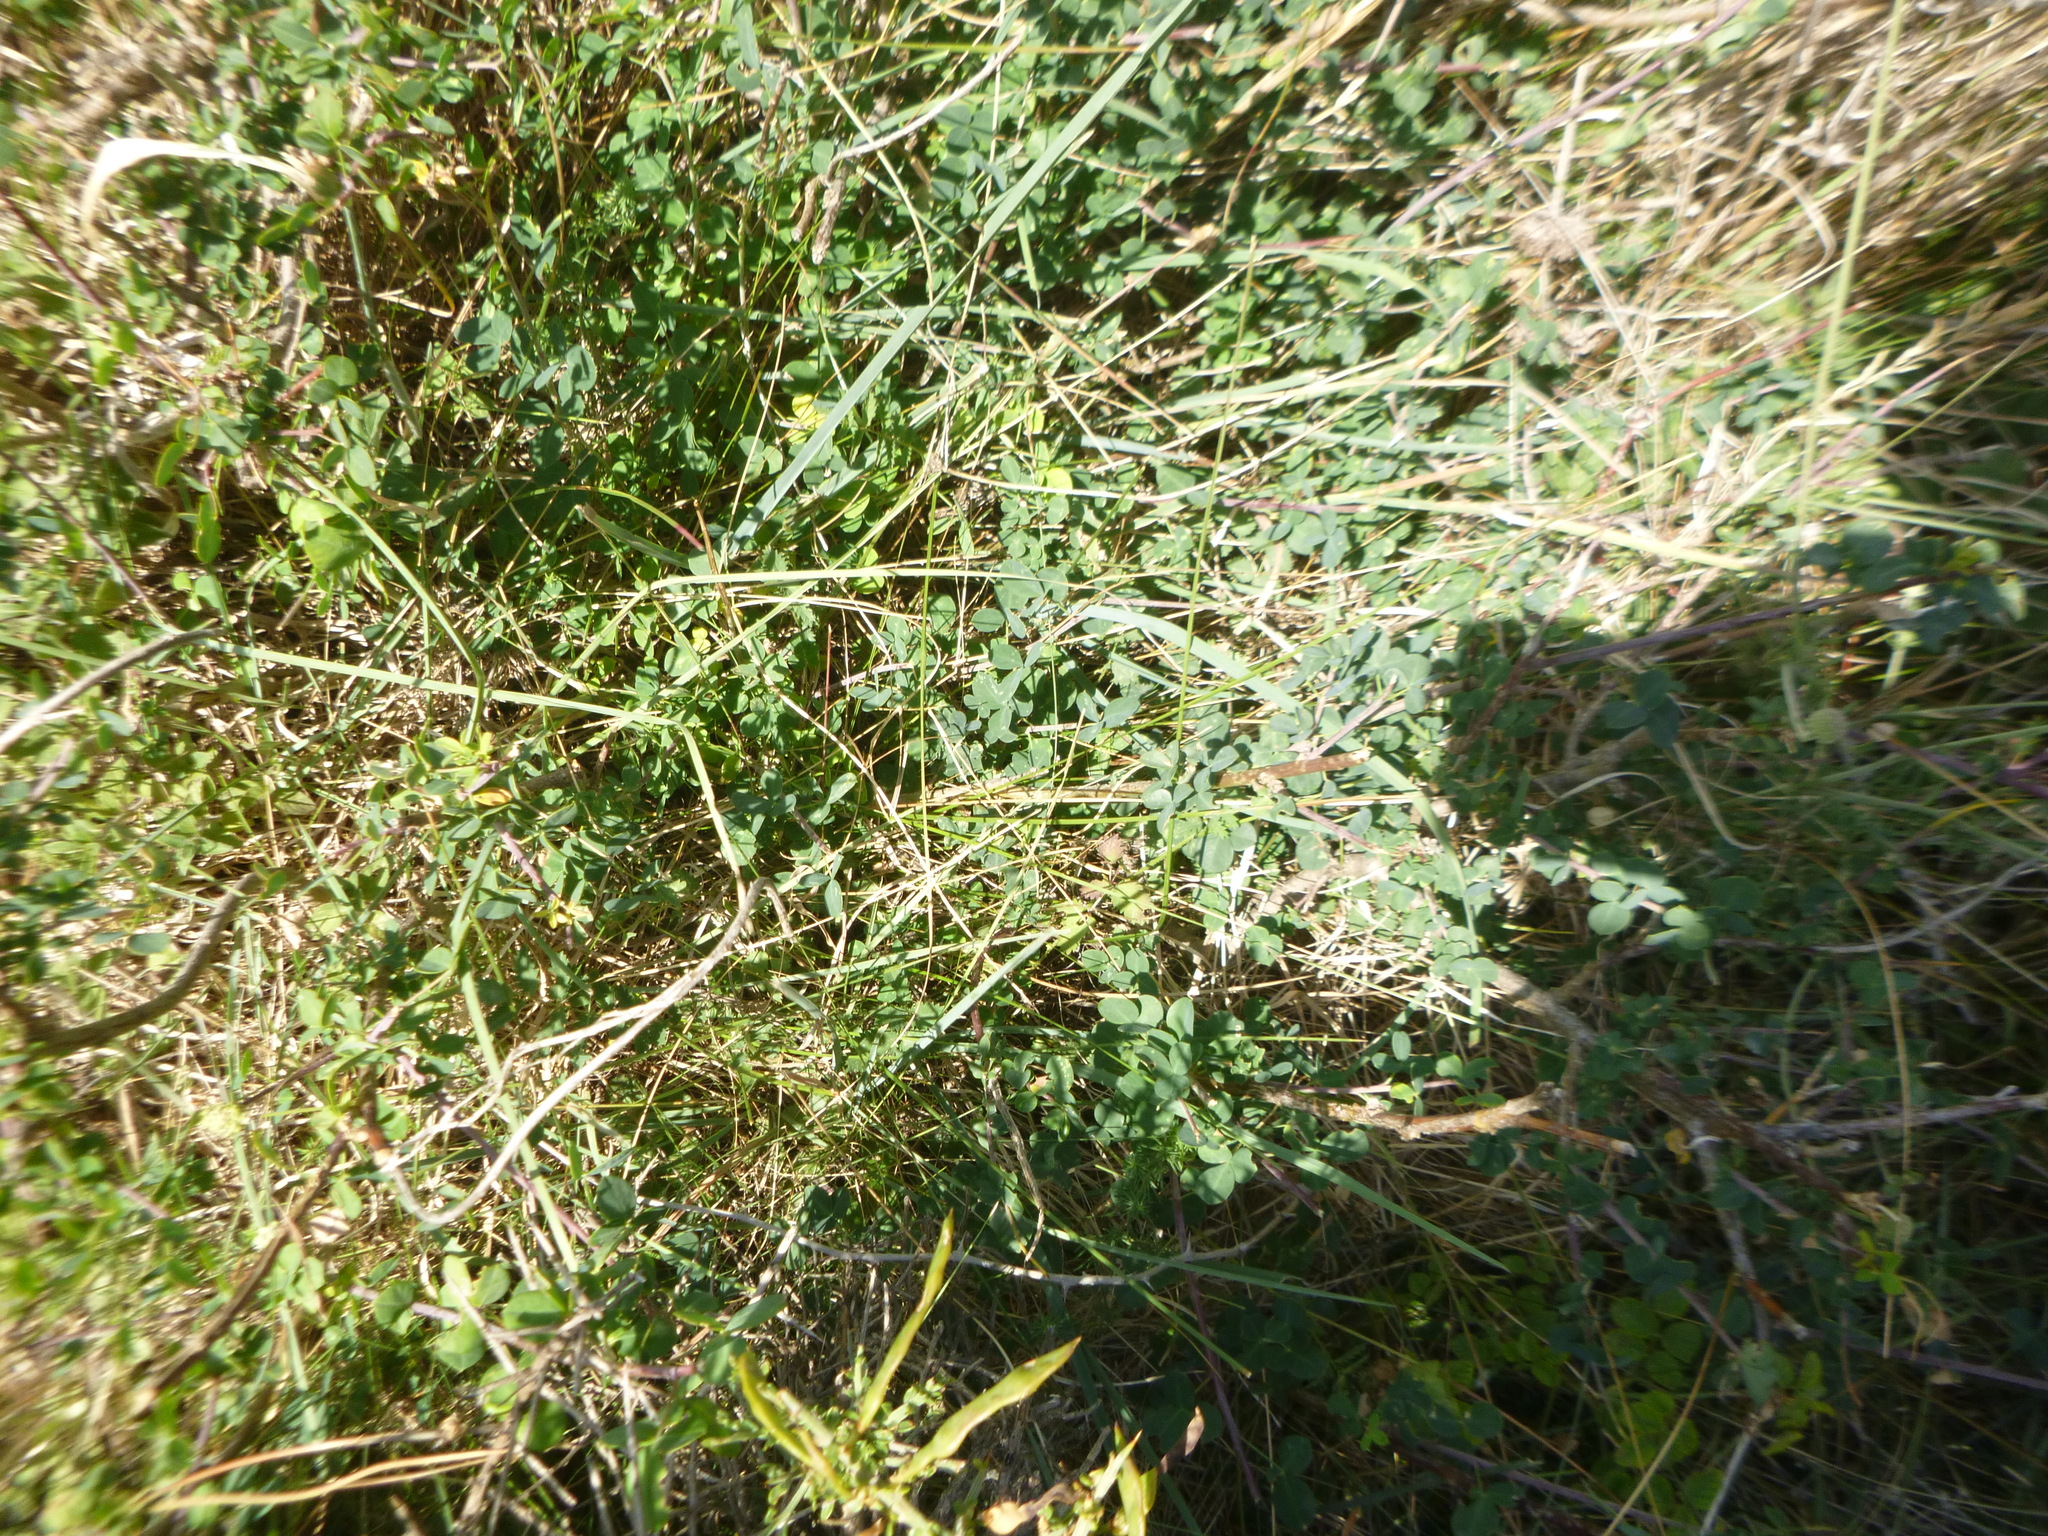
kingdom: Plantae
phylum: Tracheophyta
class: Magnoliopsida
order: Fabales
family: Fabaceae
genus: Hippocrepis
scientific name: Hippocrepis emerus
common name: Scorpion senna
